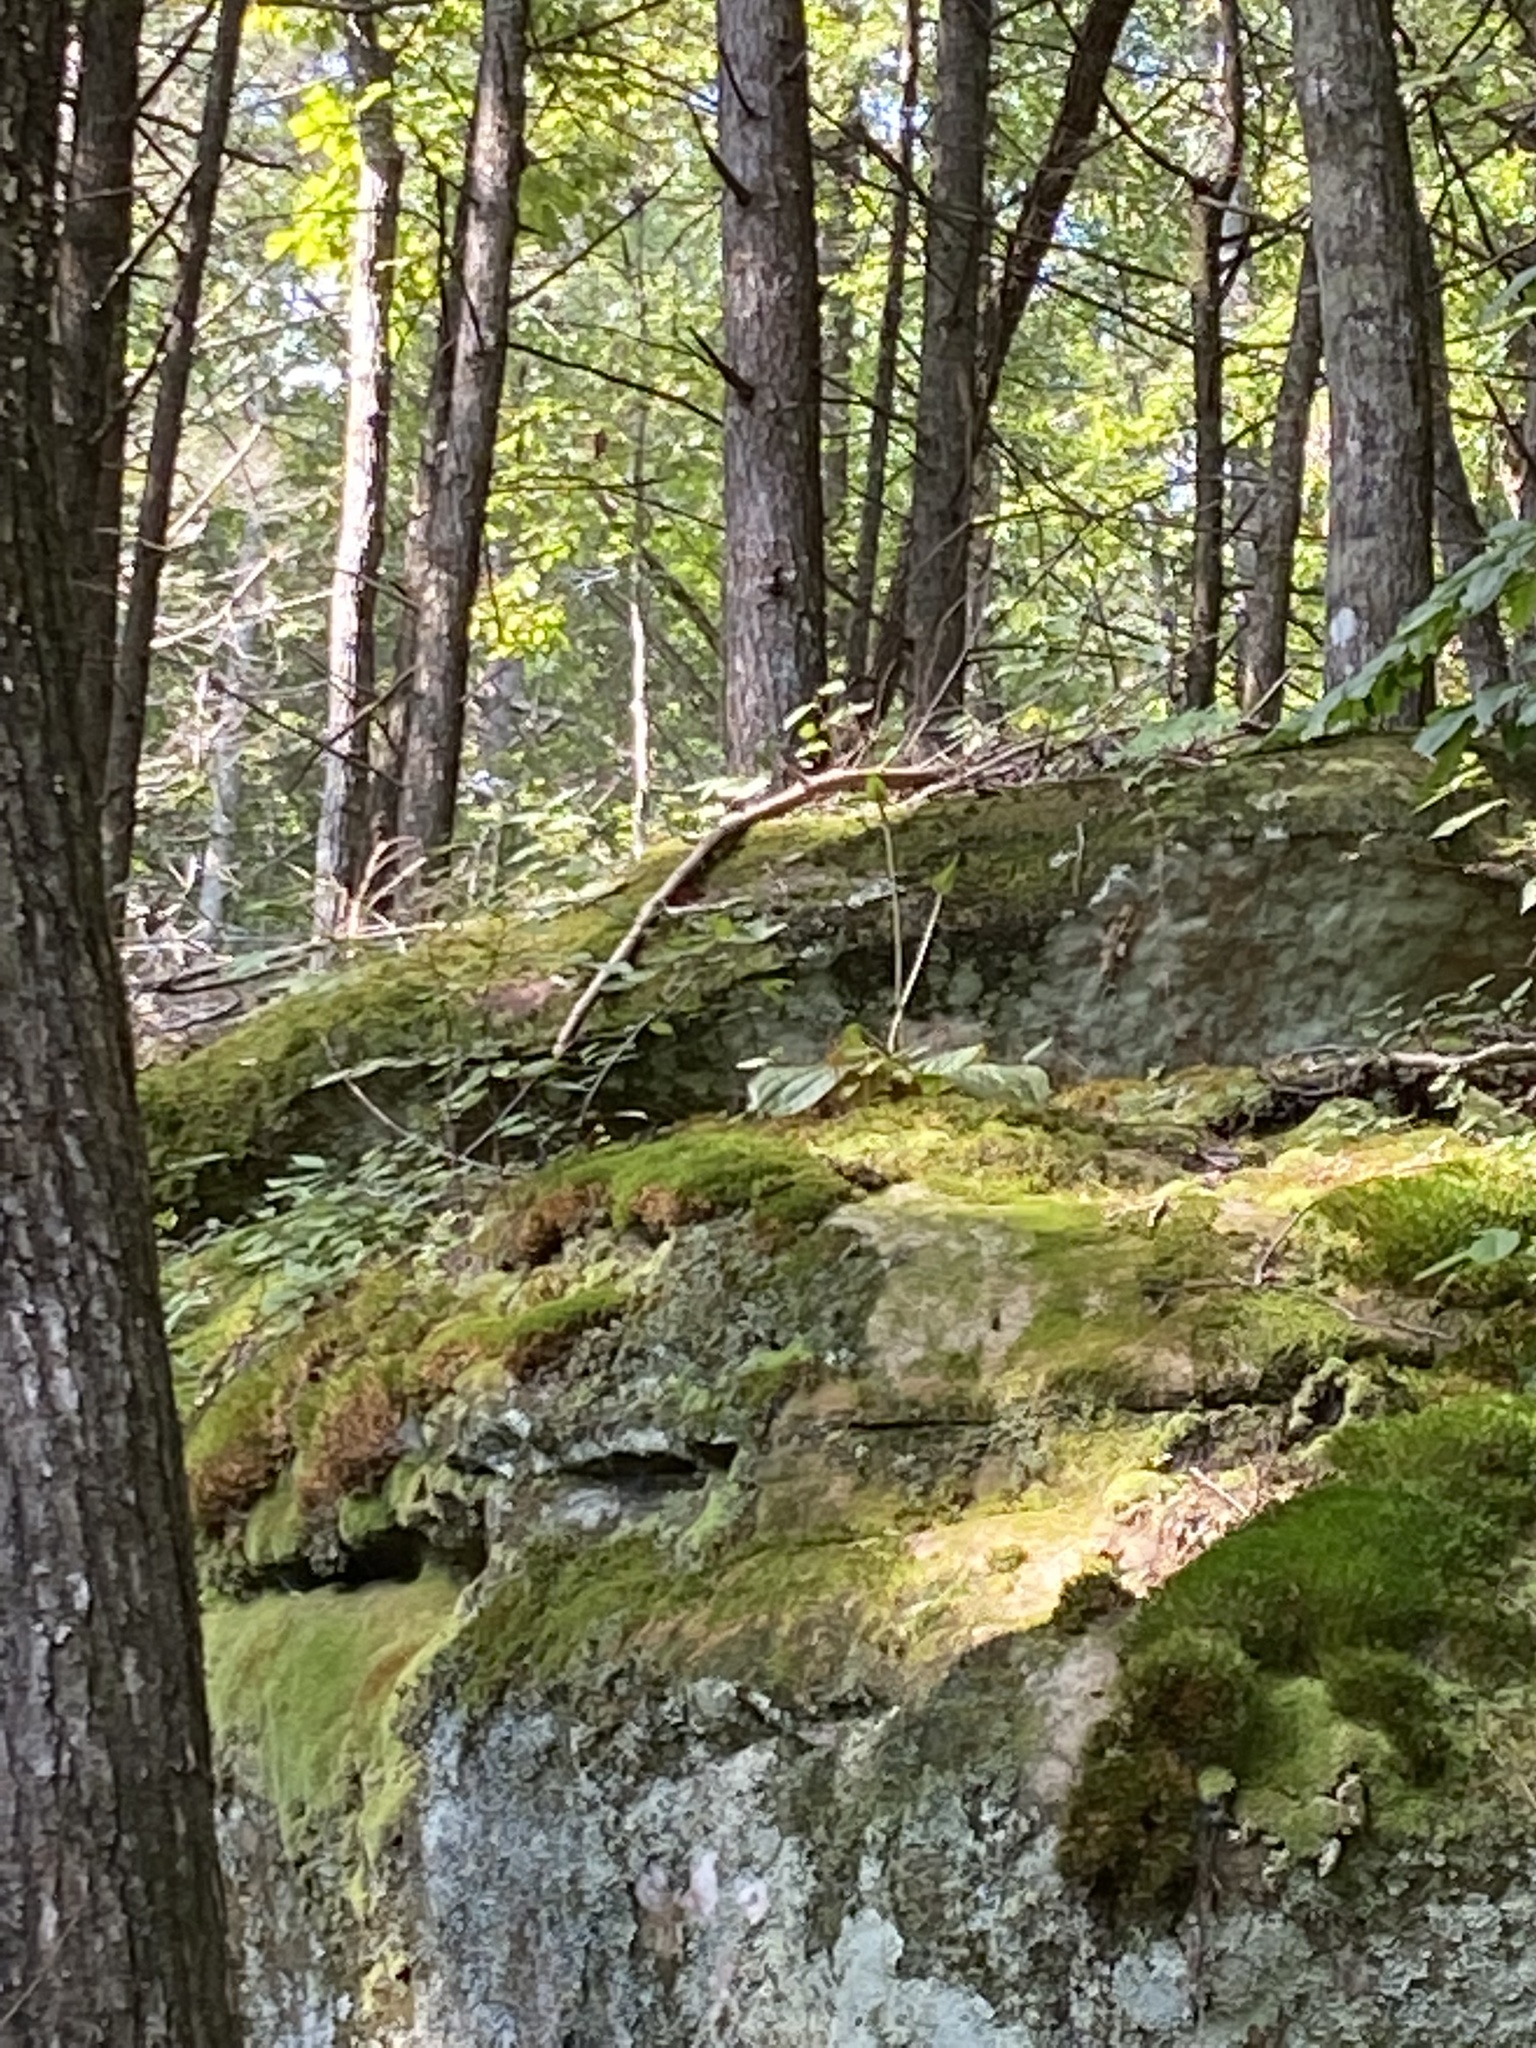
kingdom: Plantae
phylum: Tracheophyta
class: Liliopsida
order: Asparagales
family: Orchidaceae
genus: Cypripedium
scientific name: Cypripedium acaule
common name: Pink lady's-slipper
